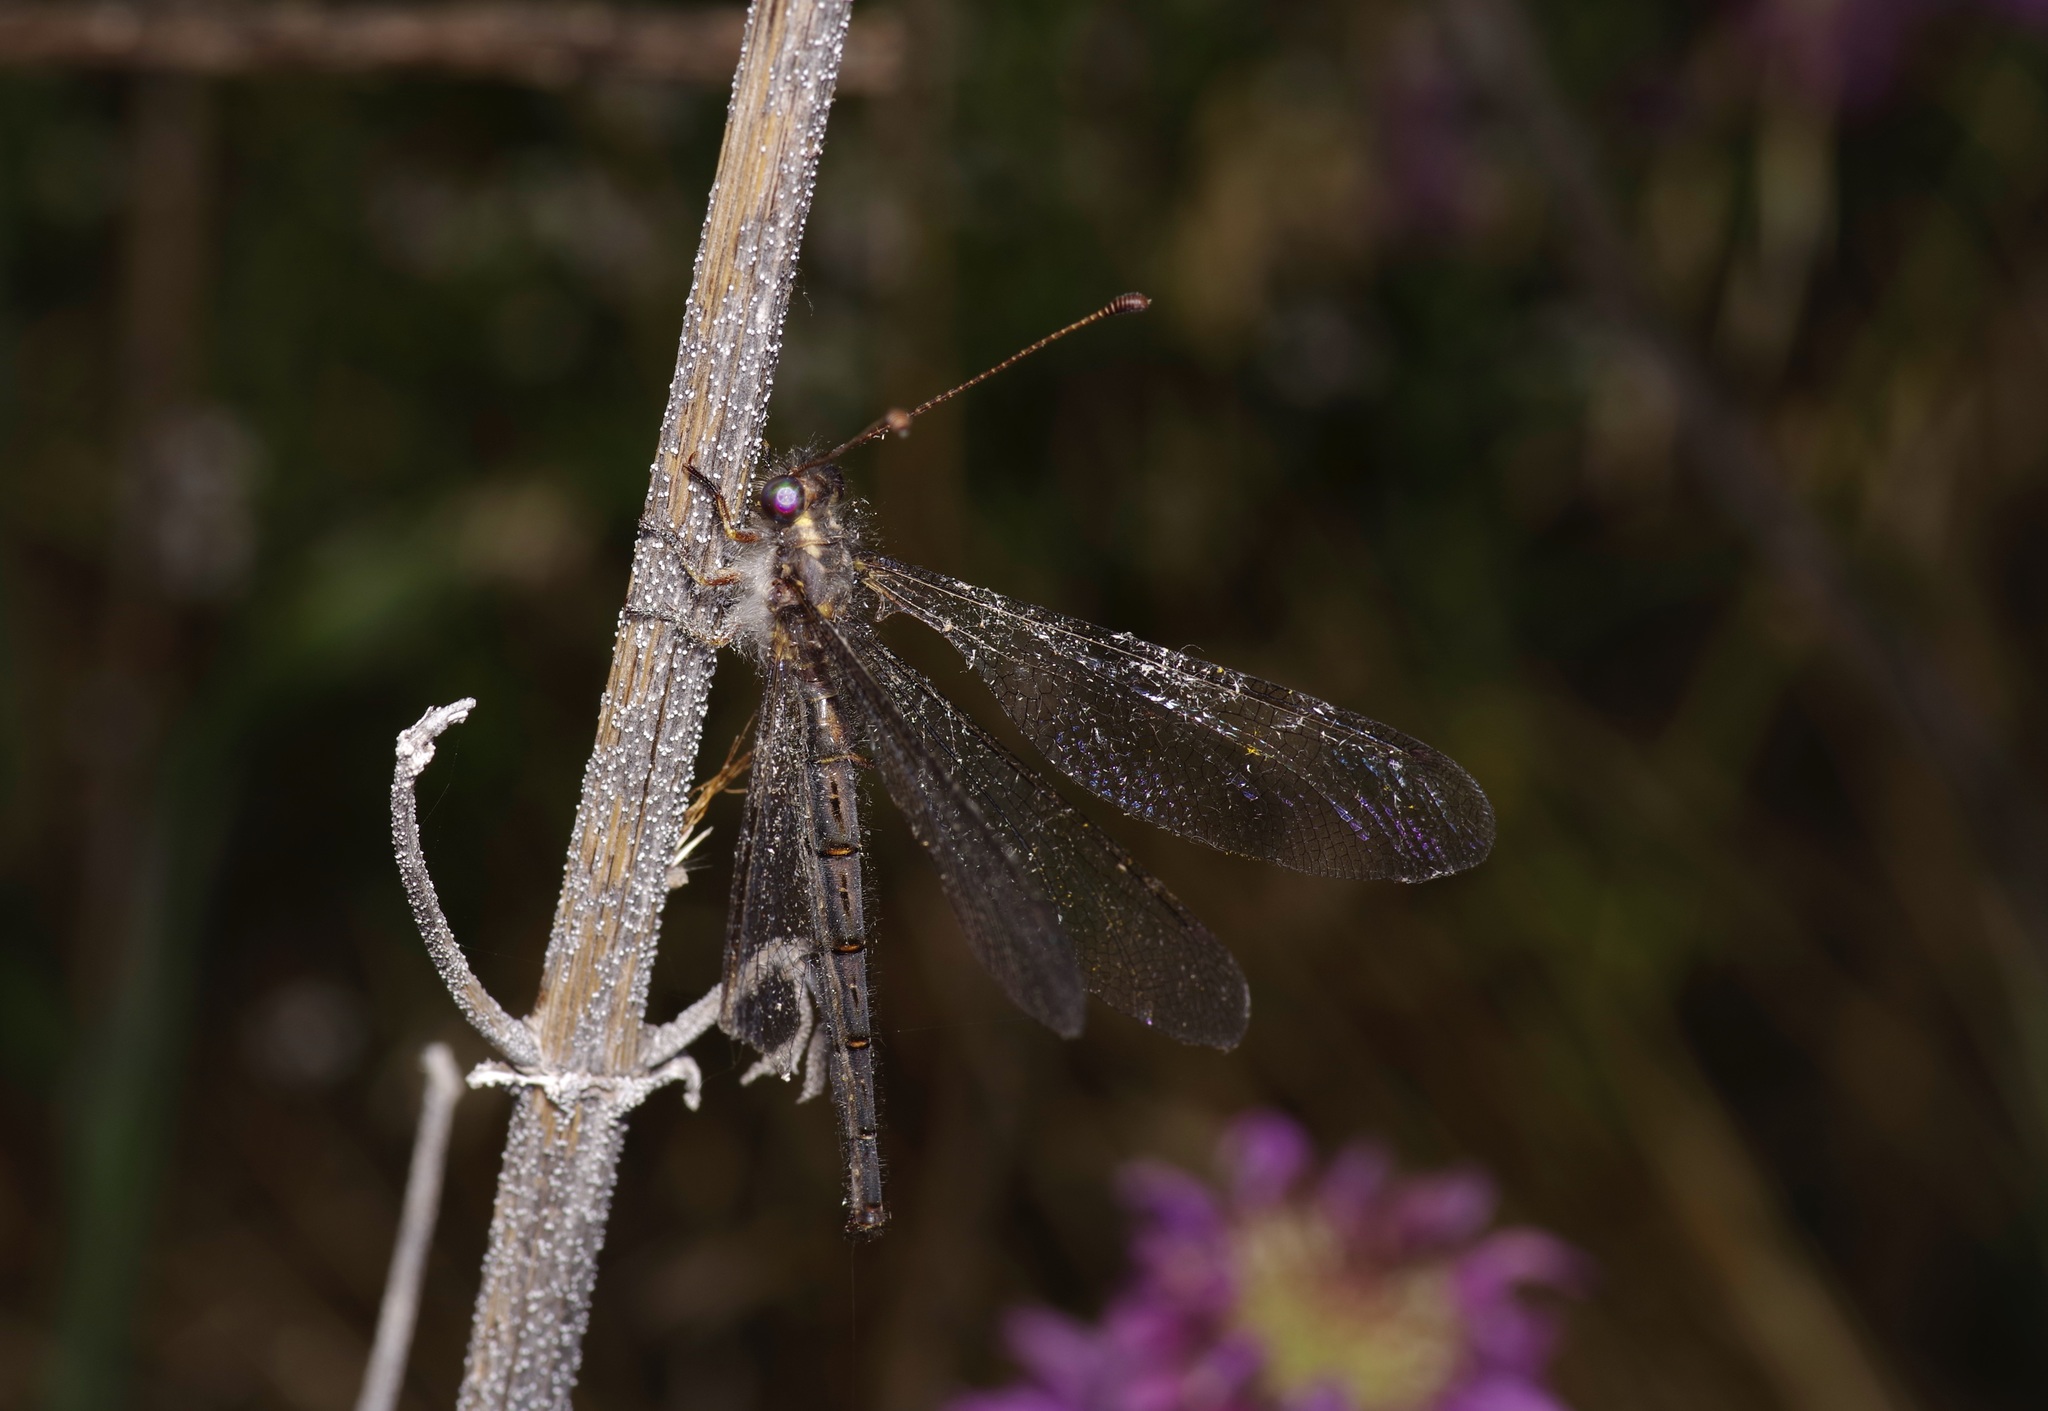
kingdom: Animalia
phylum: Arthropoda
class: Insecta
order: Neuroptera
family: Ascalaphidae
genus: Ascaloptynx
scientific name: Ascaloptynx appendiculata
